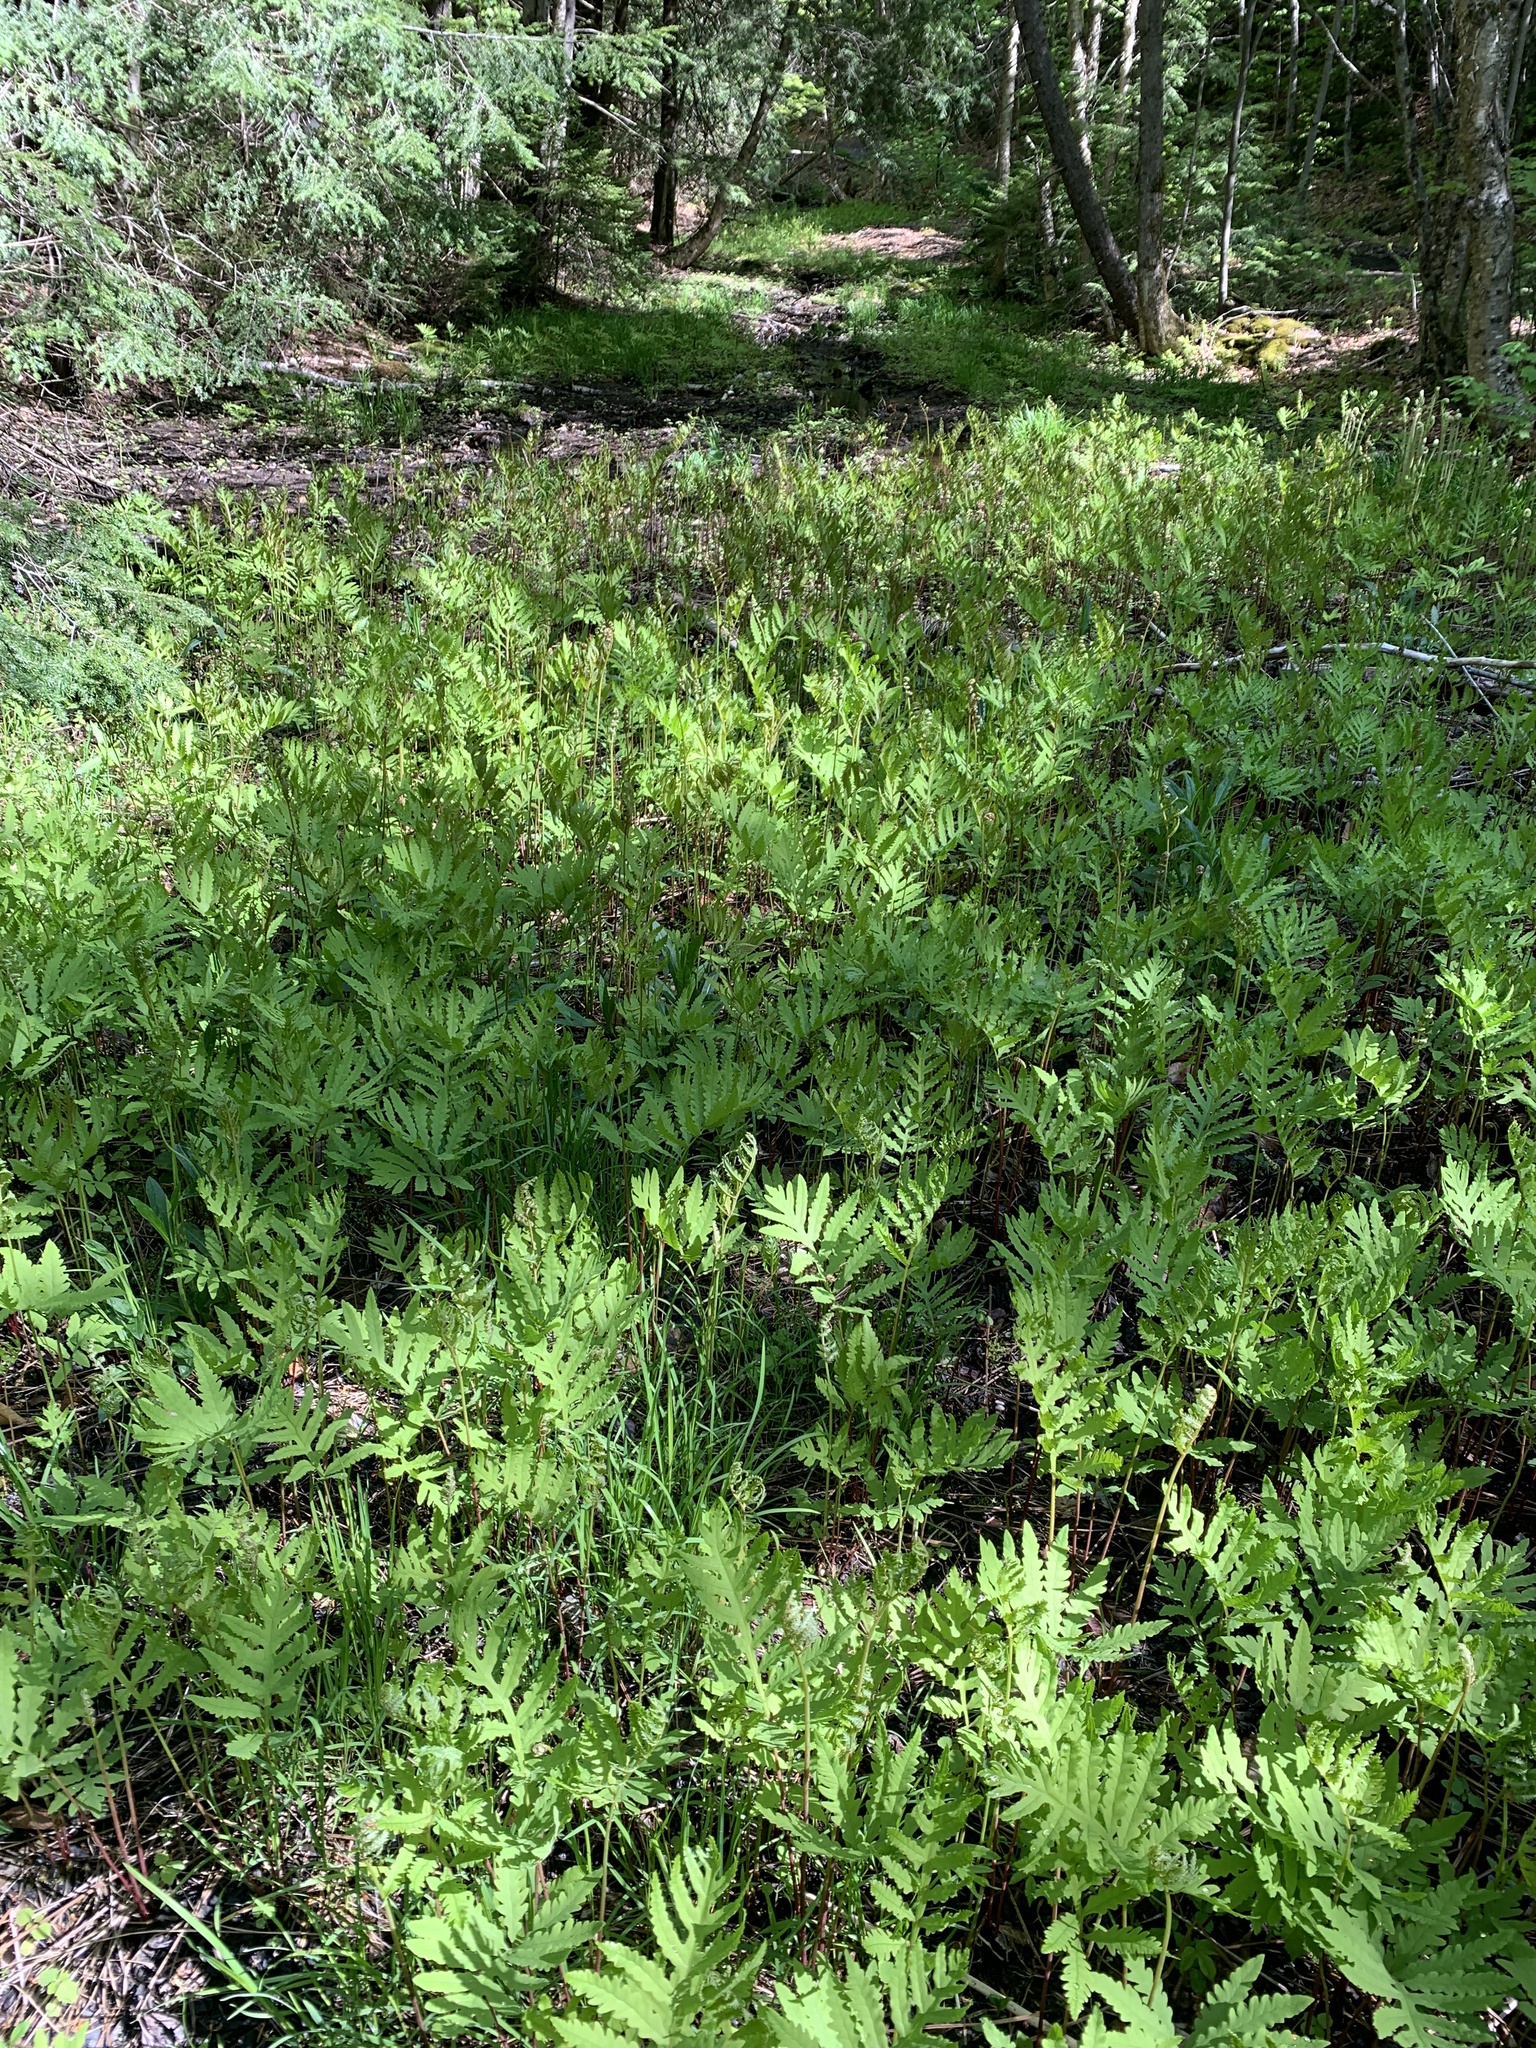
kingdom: Plantae
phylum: Tracheophyta
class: Polypodiopsida
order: Polypodiales
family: Onocleaceae
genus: Onoclea
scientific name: Onoclea sensibilis
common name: Sensitive fern
